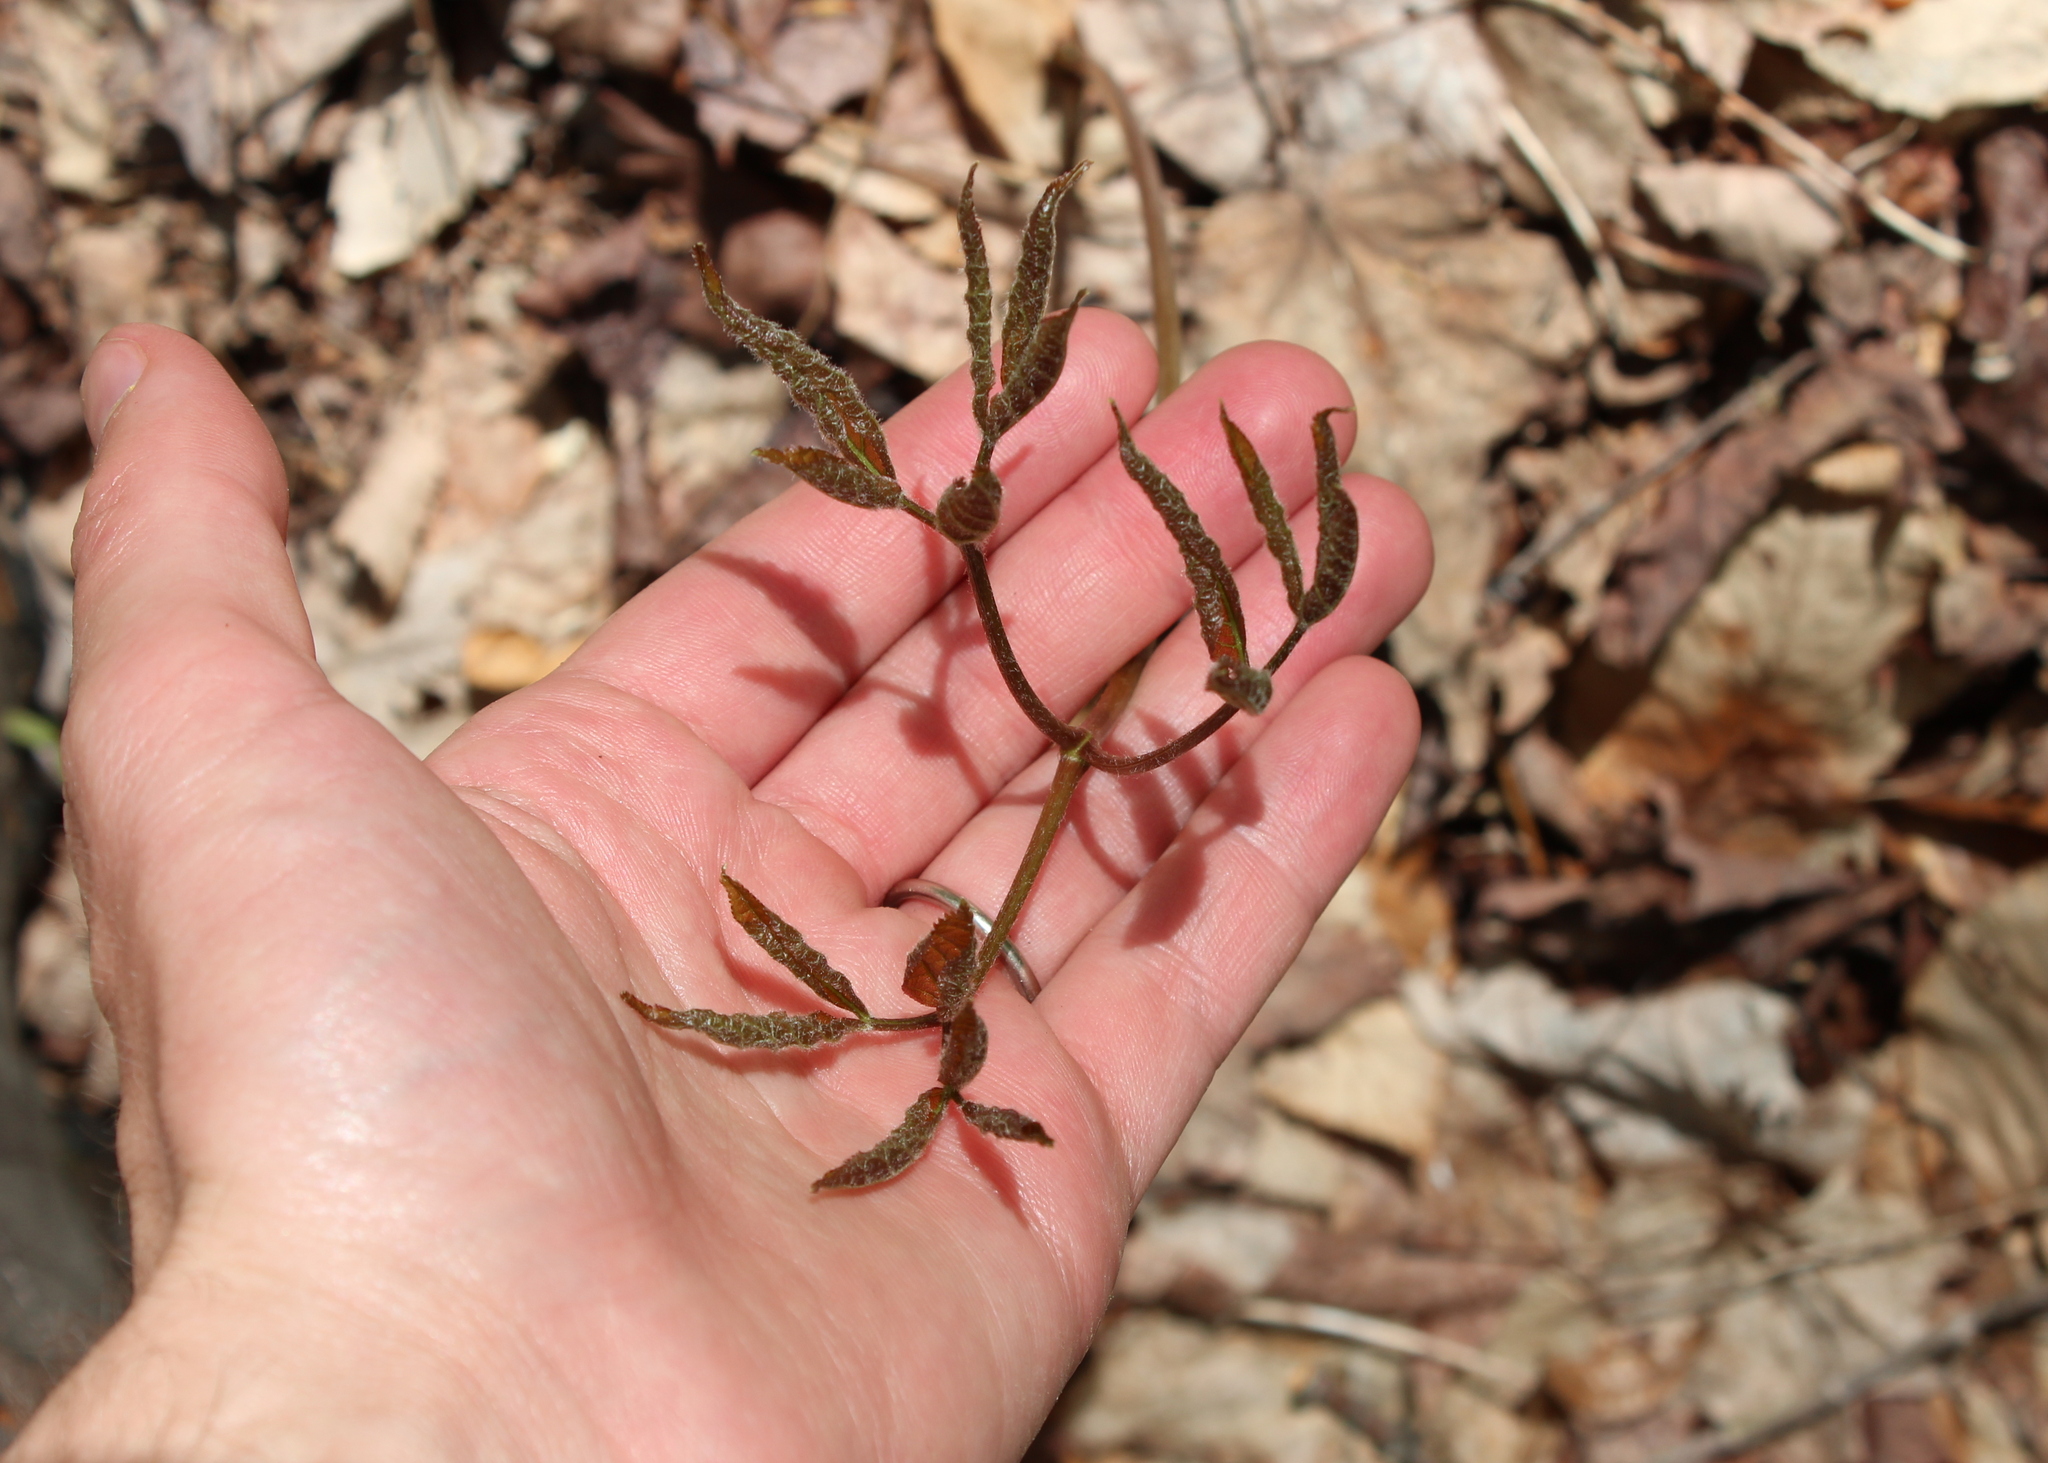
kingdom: Plantae
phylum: Tracheophyta
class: Magnoliopsida
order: Apiales
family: Araliaceae
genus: Aralia
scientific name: Aralia nudicaulis
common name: Wild sarsaparilla
